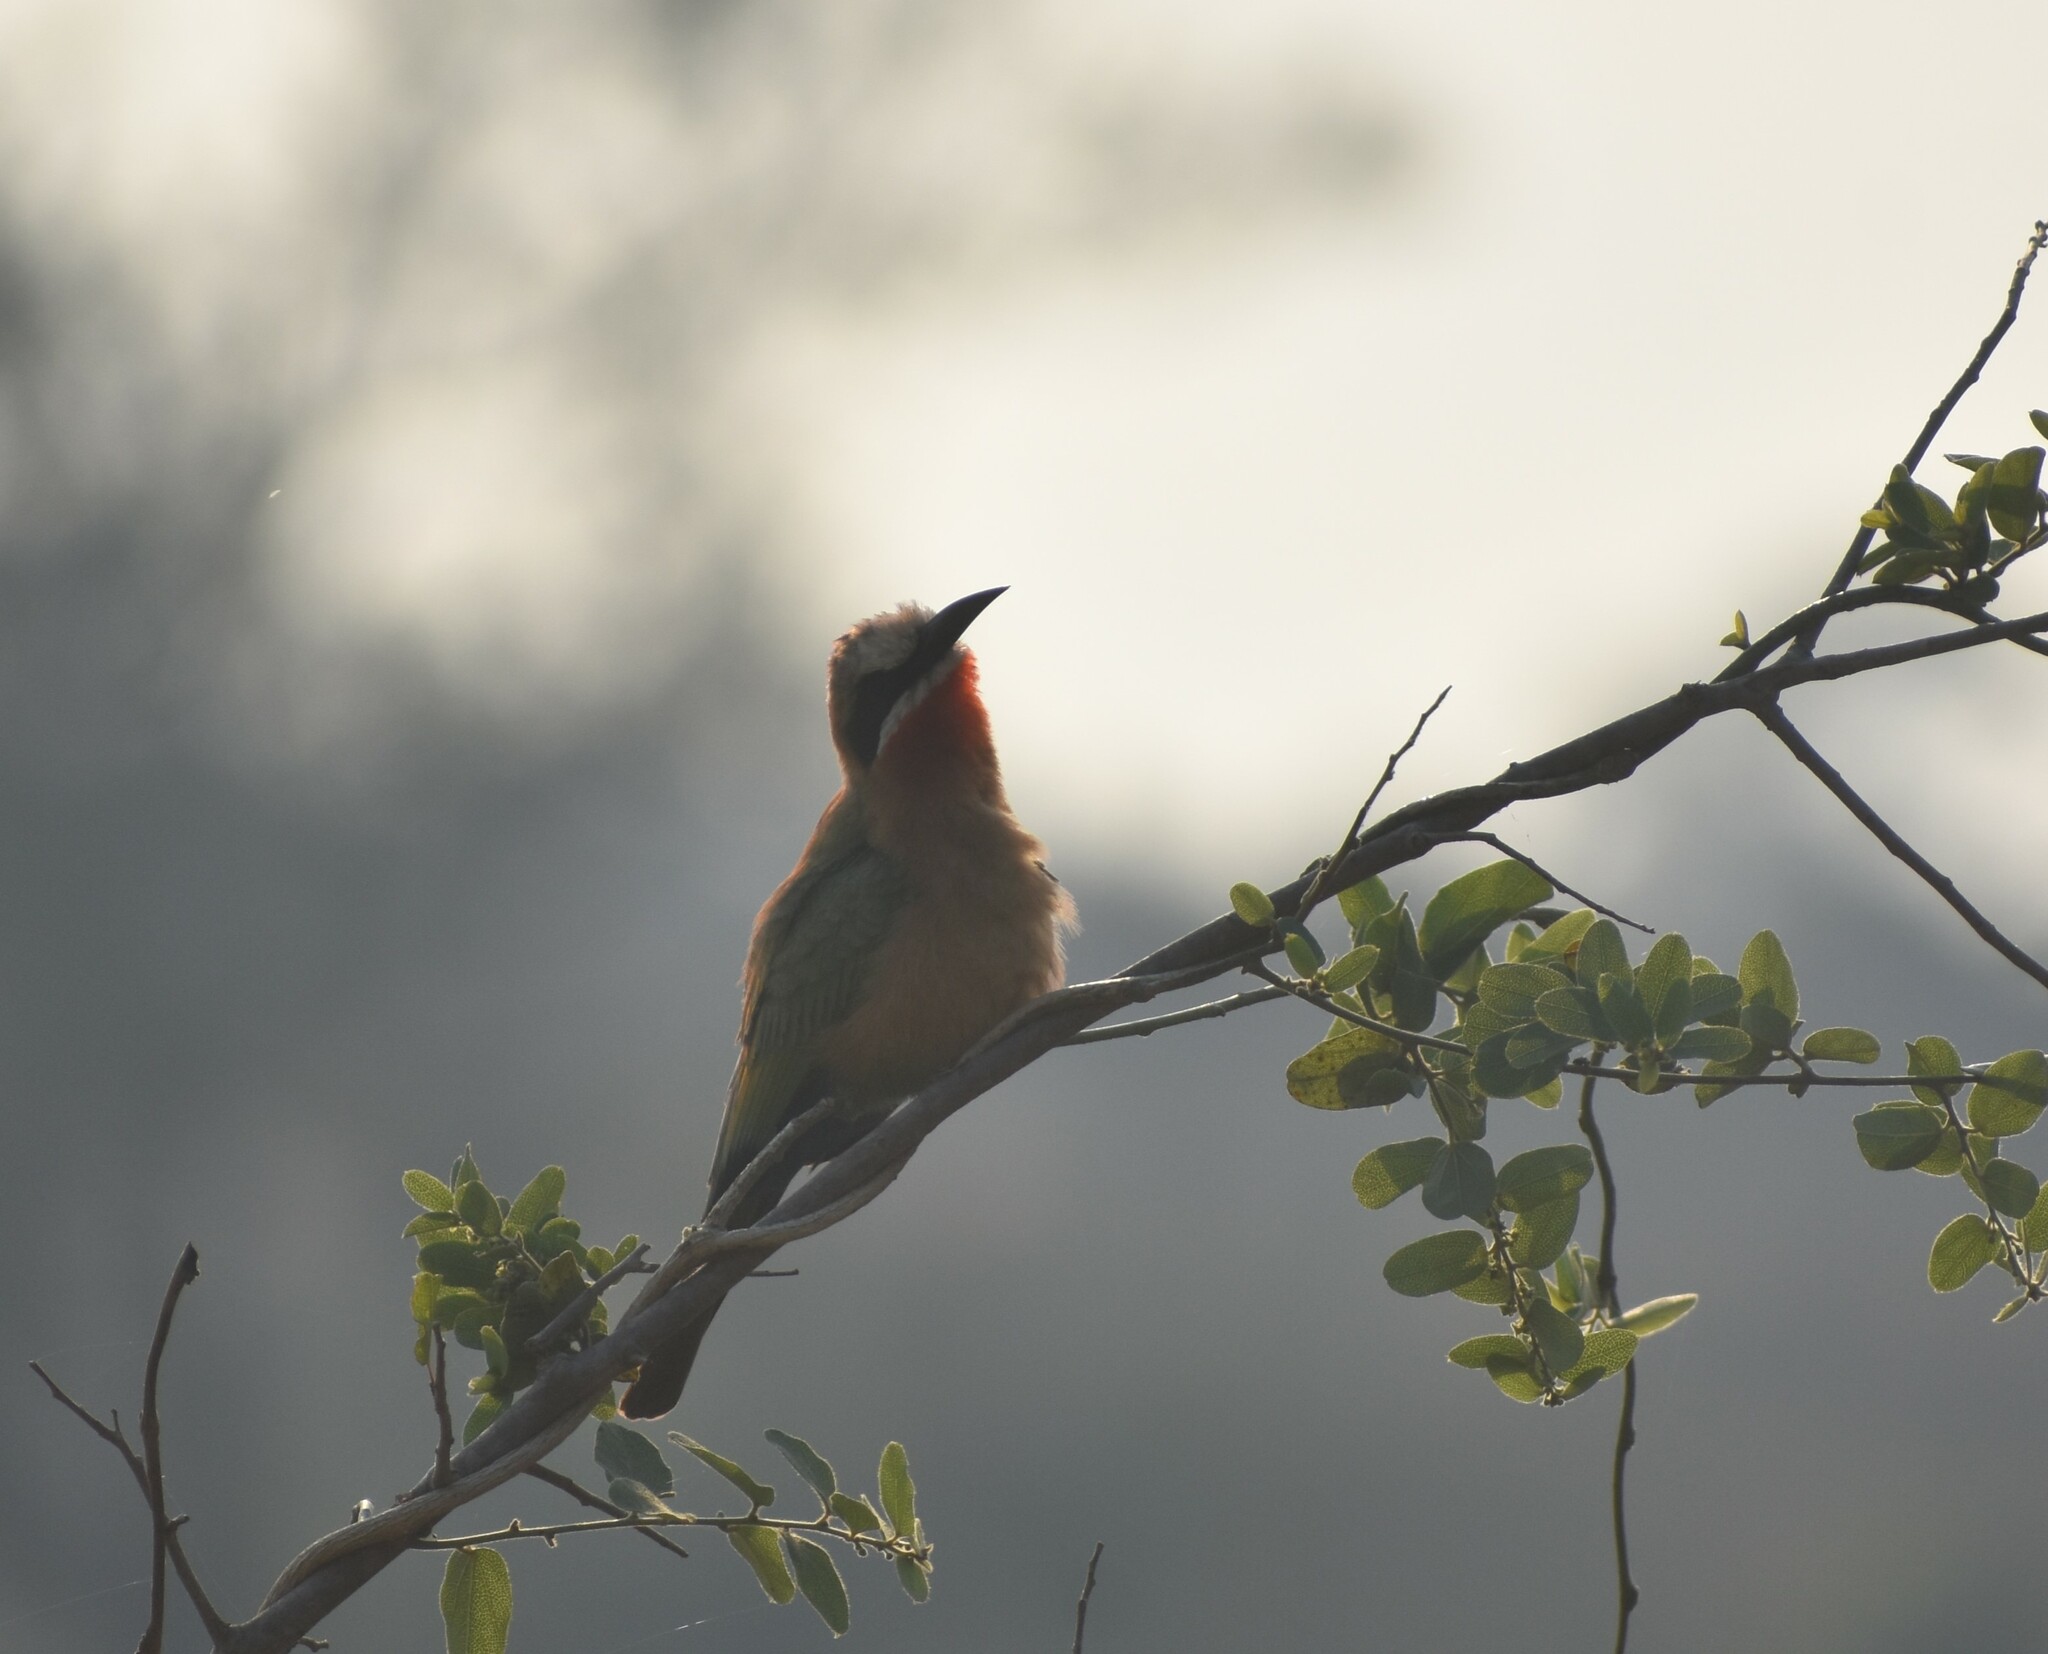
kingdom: Animalia
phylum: Chordata
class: Aves
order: Coraciiformes
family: Meropidae
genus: Merops
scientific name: Merops bullockoides
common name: White-fronted bee-eater
